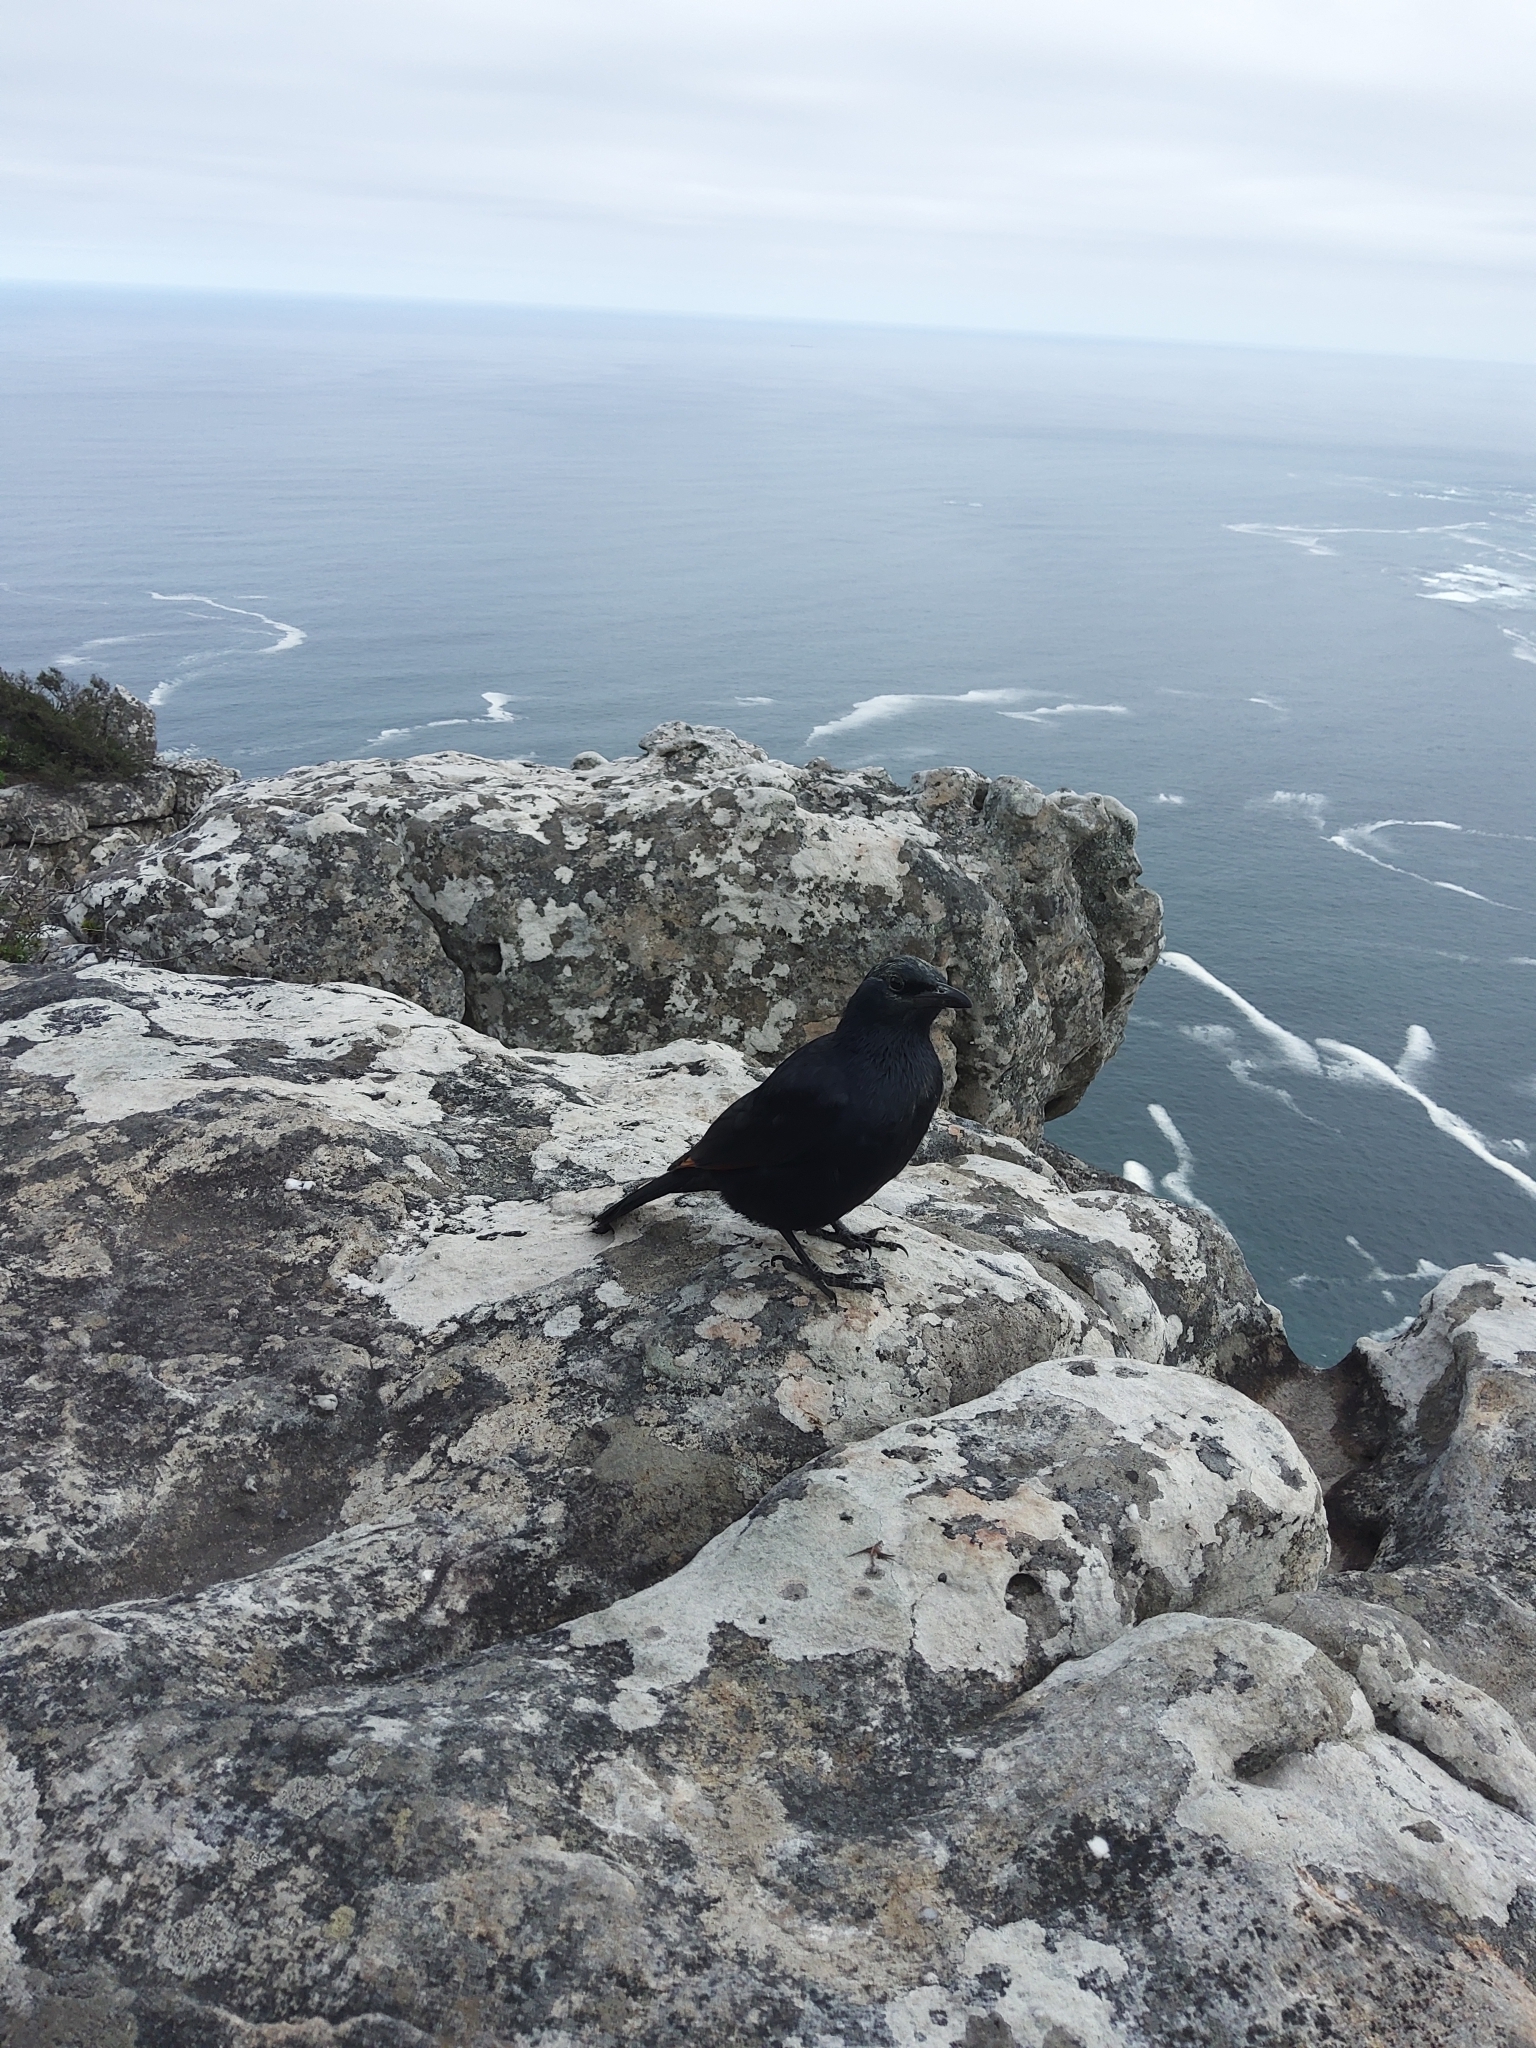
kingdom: Animalia
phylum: Chordata
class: Aves
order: Passeriformes
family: Sturnidae
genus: Onychognathus
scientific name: Onychognathus morio
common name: Red-winged starling
